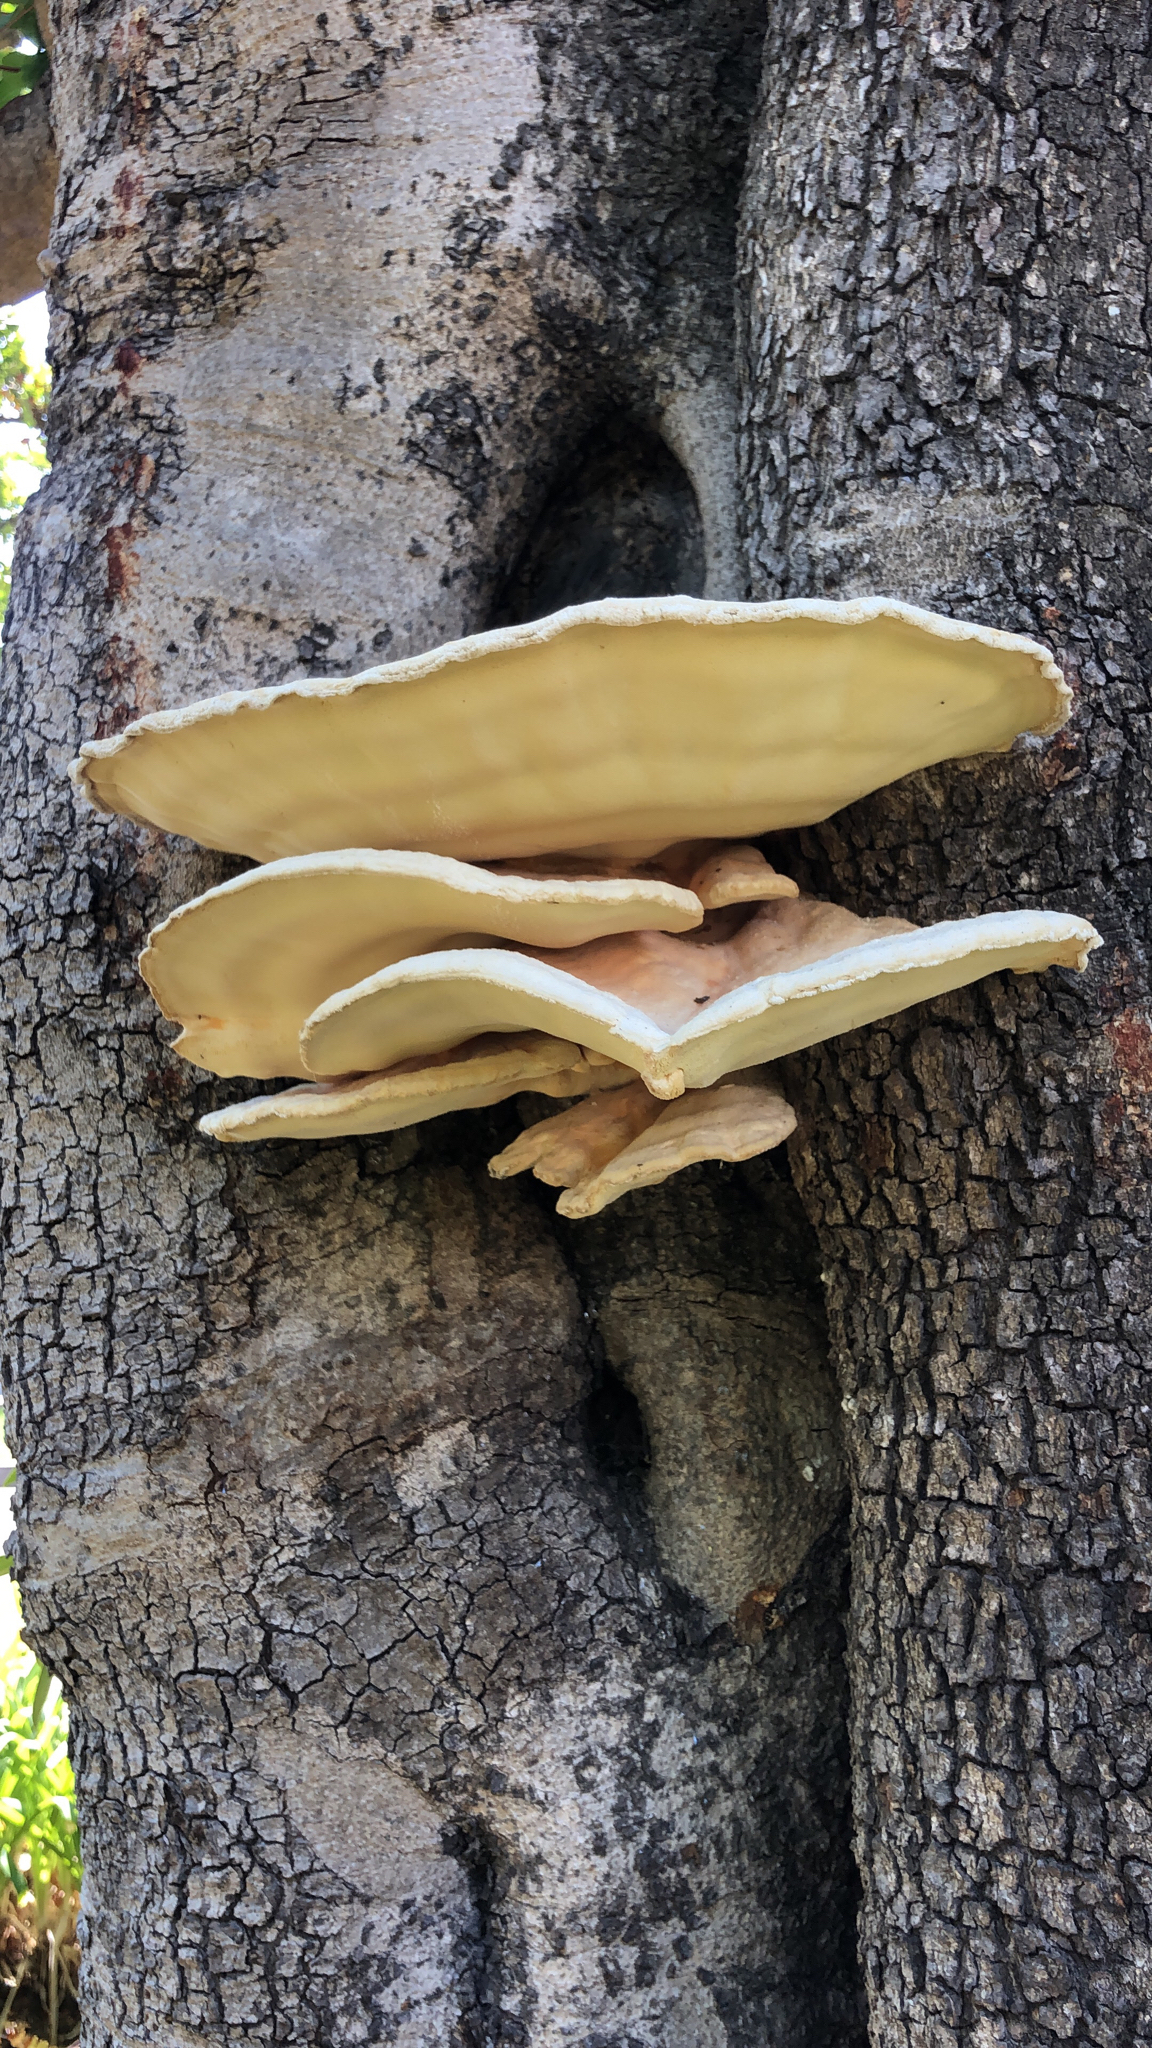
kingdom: Fungi
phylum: Basidiomycota
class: Agaricomycetes
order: Polyporales
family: Laetiporaceae
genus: Laetiporus
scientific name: Laetiporus gilbertsonii
